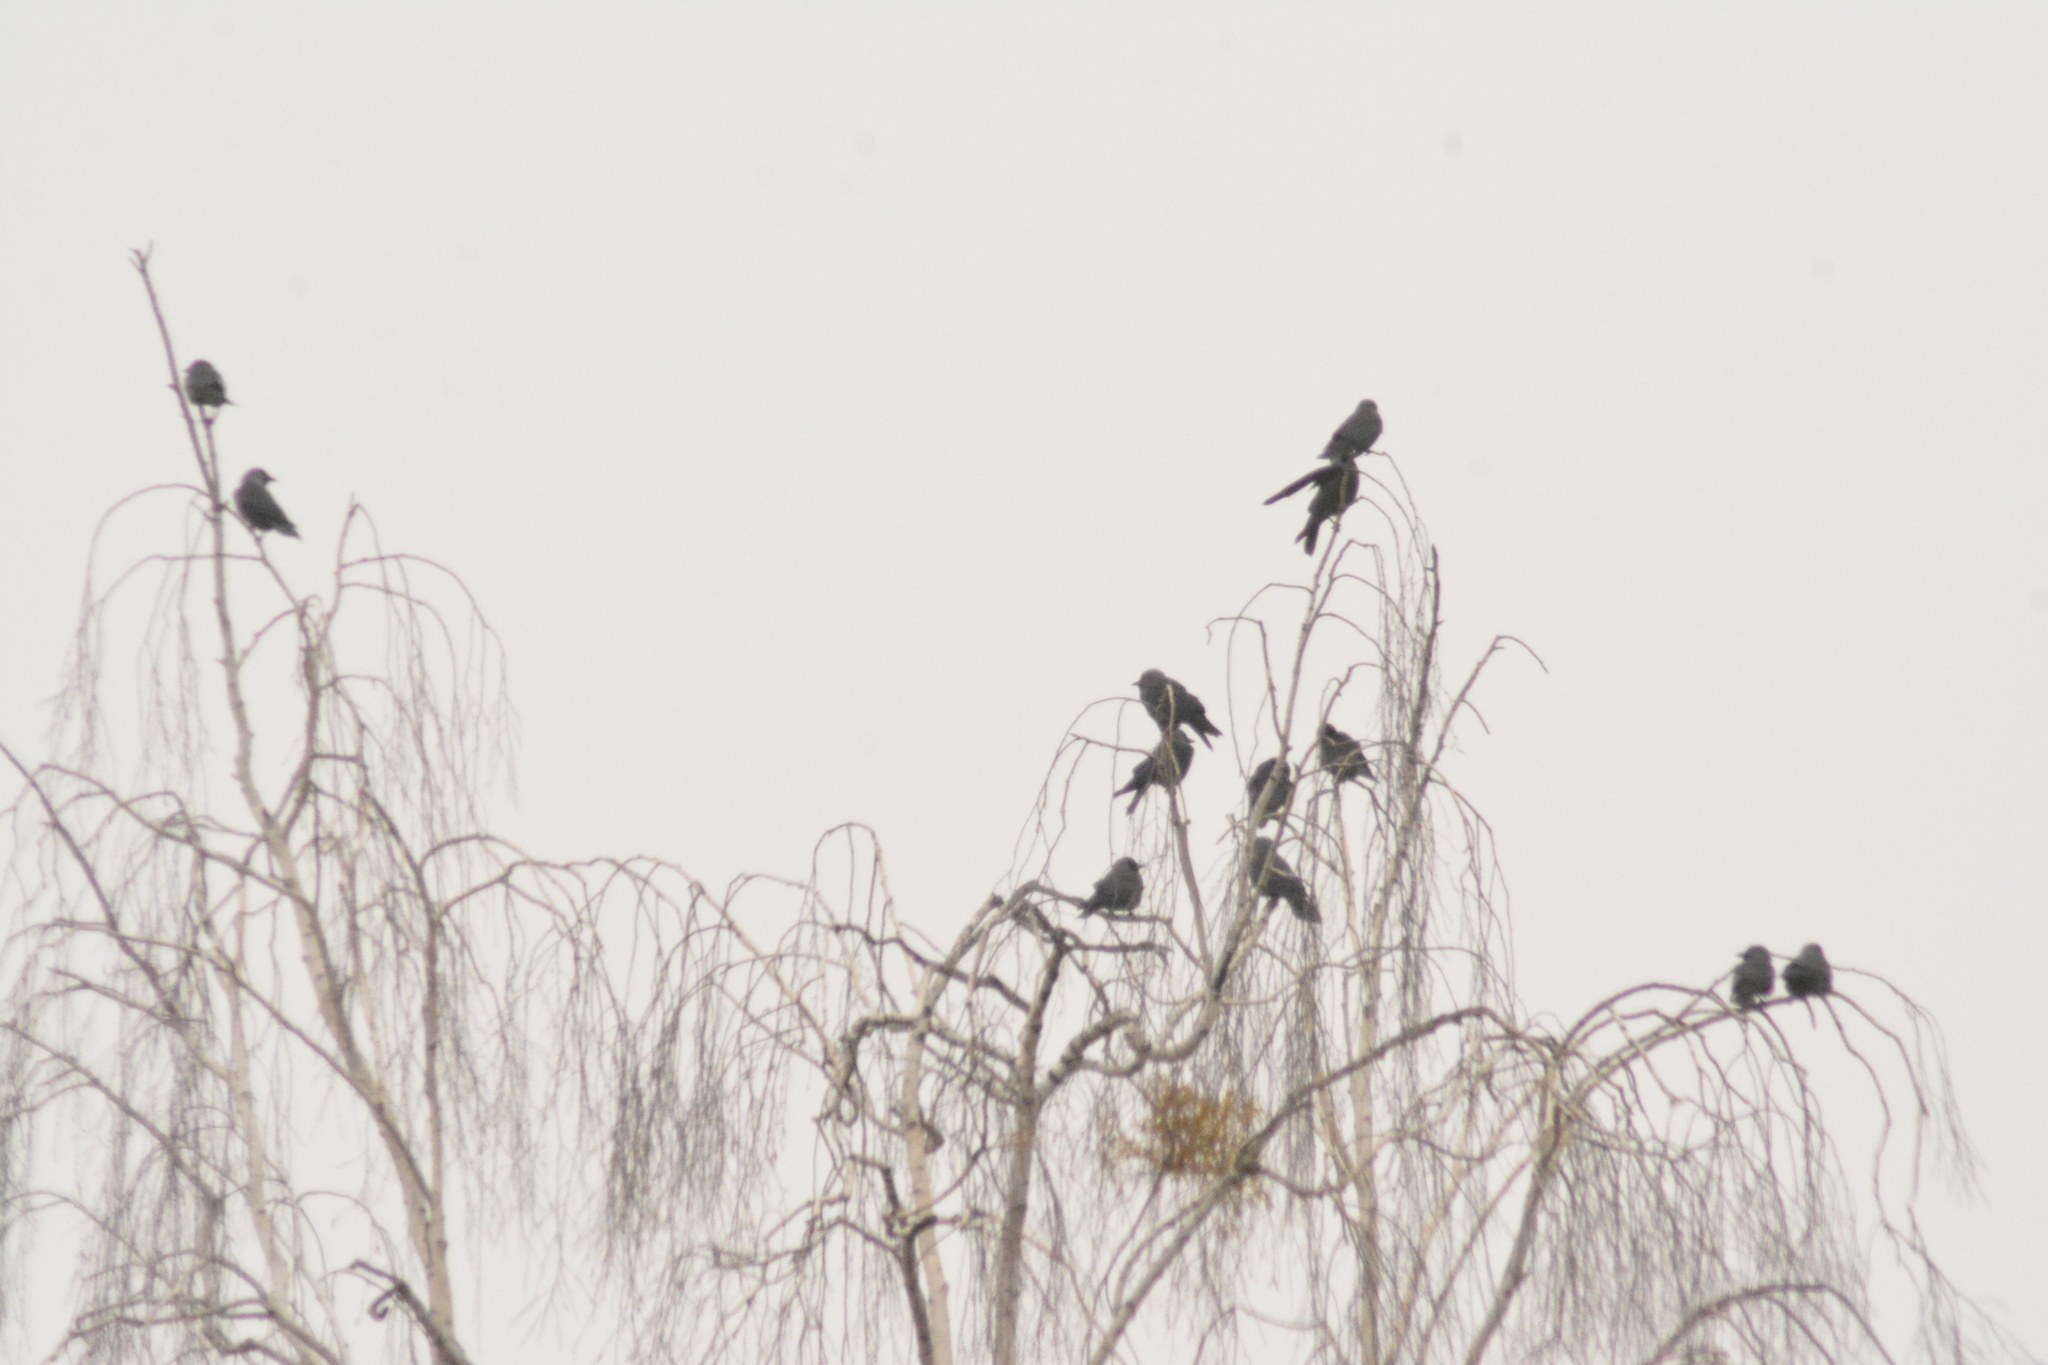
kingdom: Animalia
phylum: Chordata
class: Aves
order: Passeriformes
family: Corvidae
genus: Coloeus
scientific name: Coloeus monedula
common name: Western jackdaw
